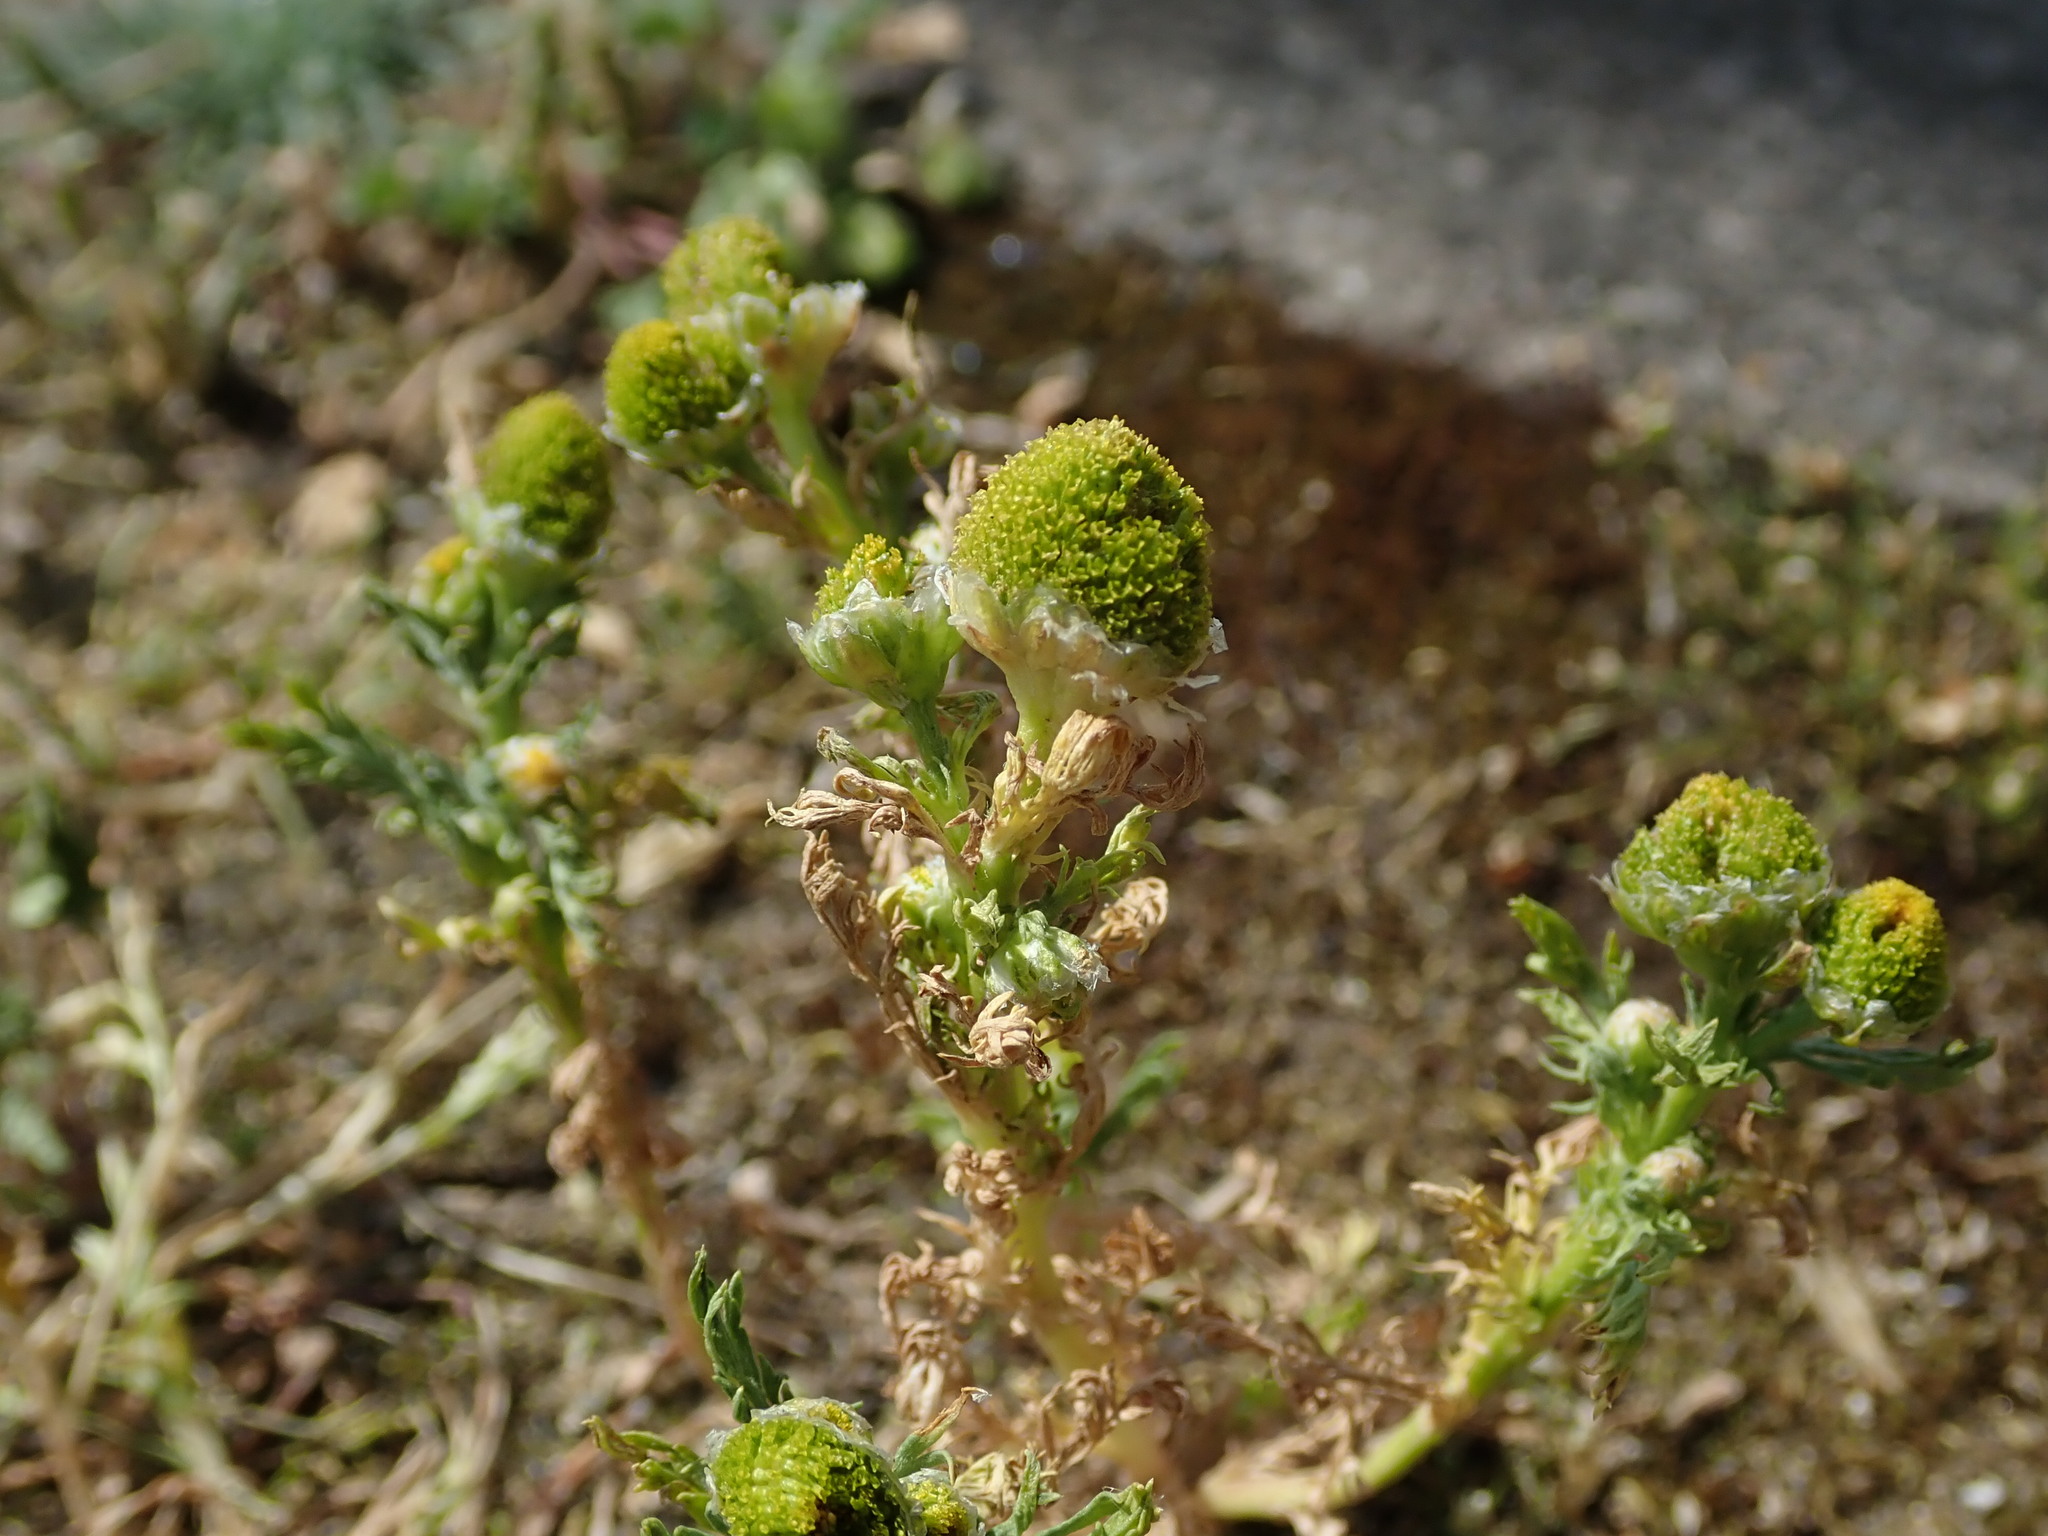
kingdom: Plantae
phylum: Tracheophyta
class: Magnoliopsida
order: Asterales
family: Asteraceae
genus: Matricaria
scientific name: Matricaria discoidea
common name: Disc mayweed
